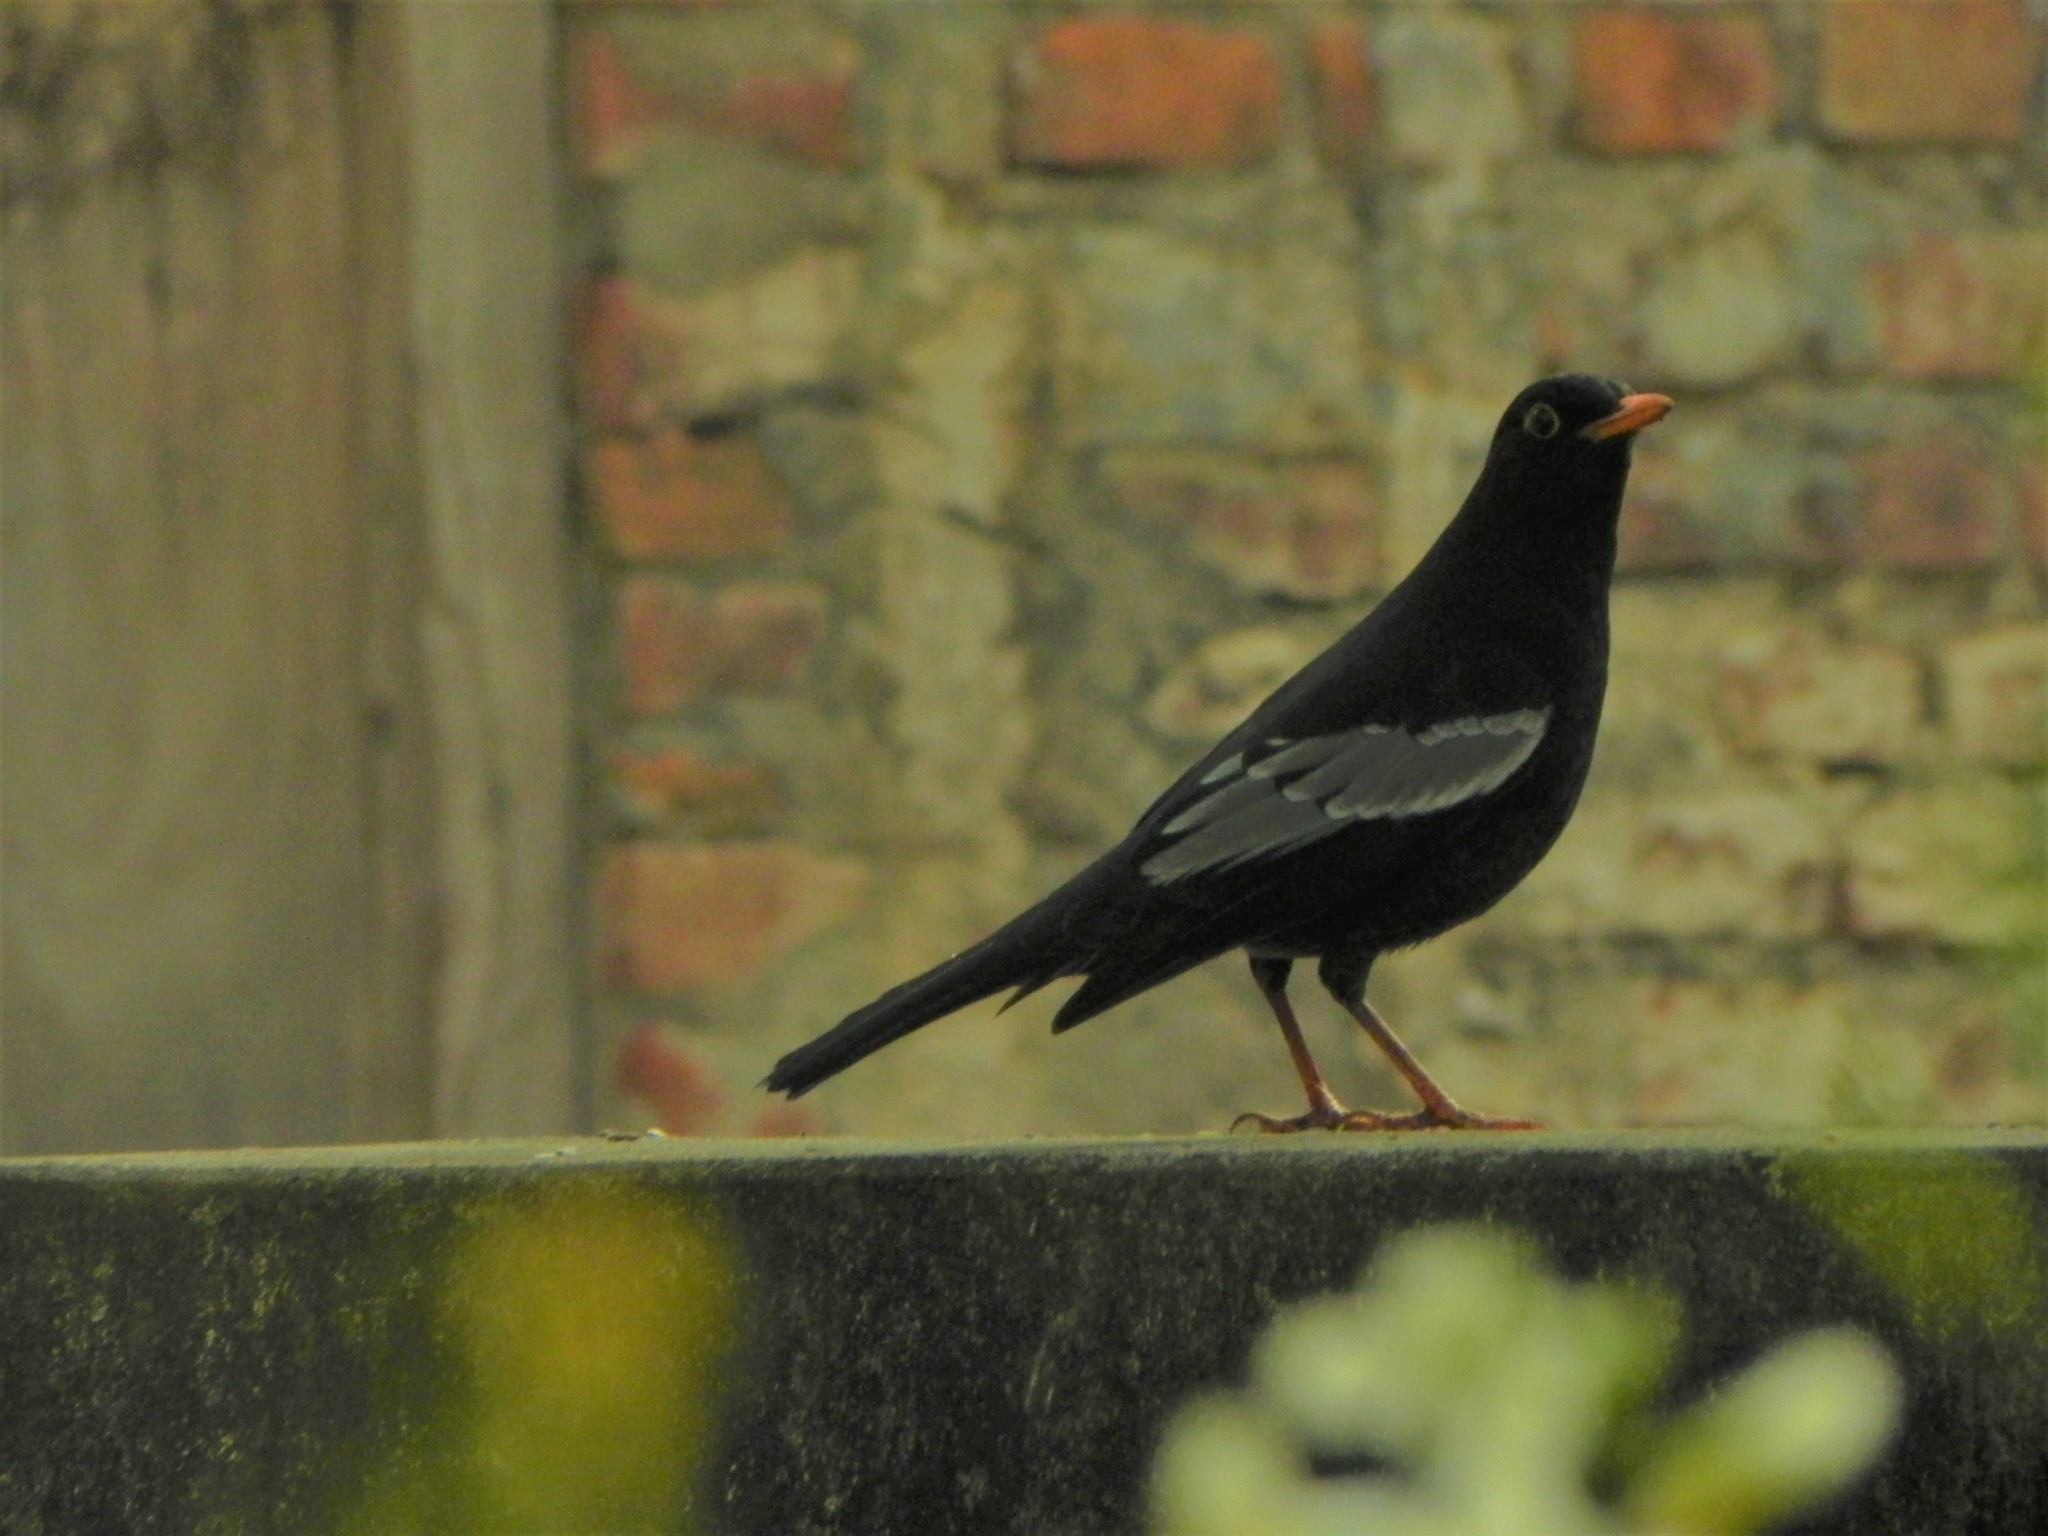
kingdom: Animalia
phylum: Chordata
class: Aves
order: Passeriformes
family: Turdidae
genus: Turdus
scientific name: Turdus boulboul
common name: Grey-winged blackbird
